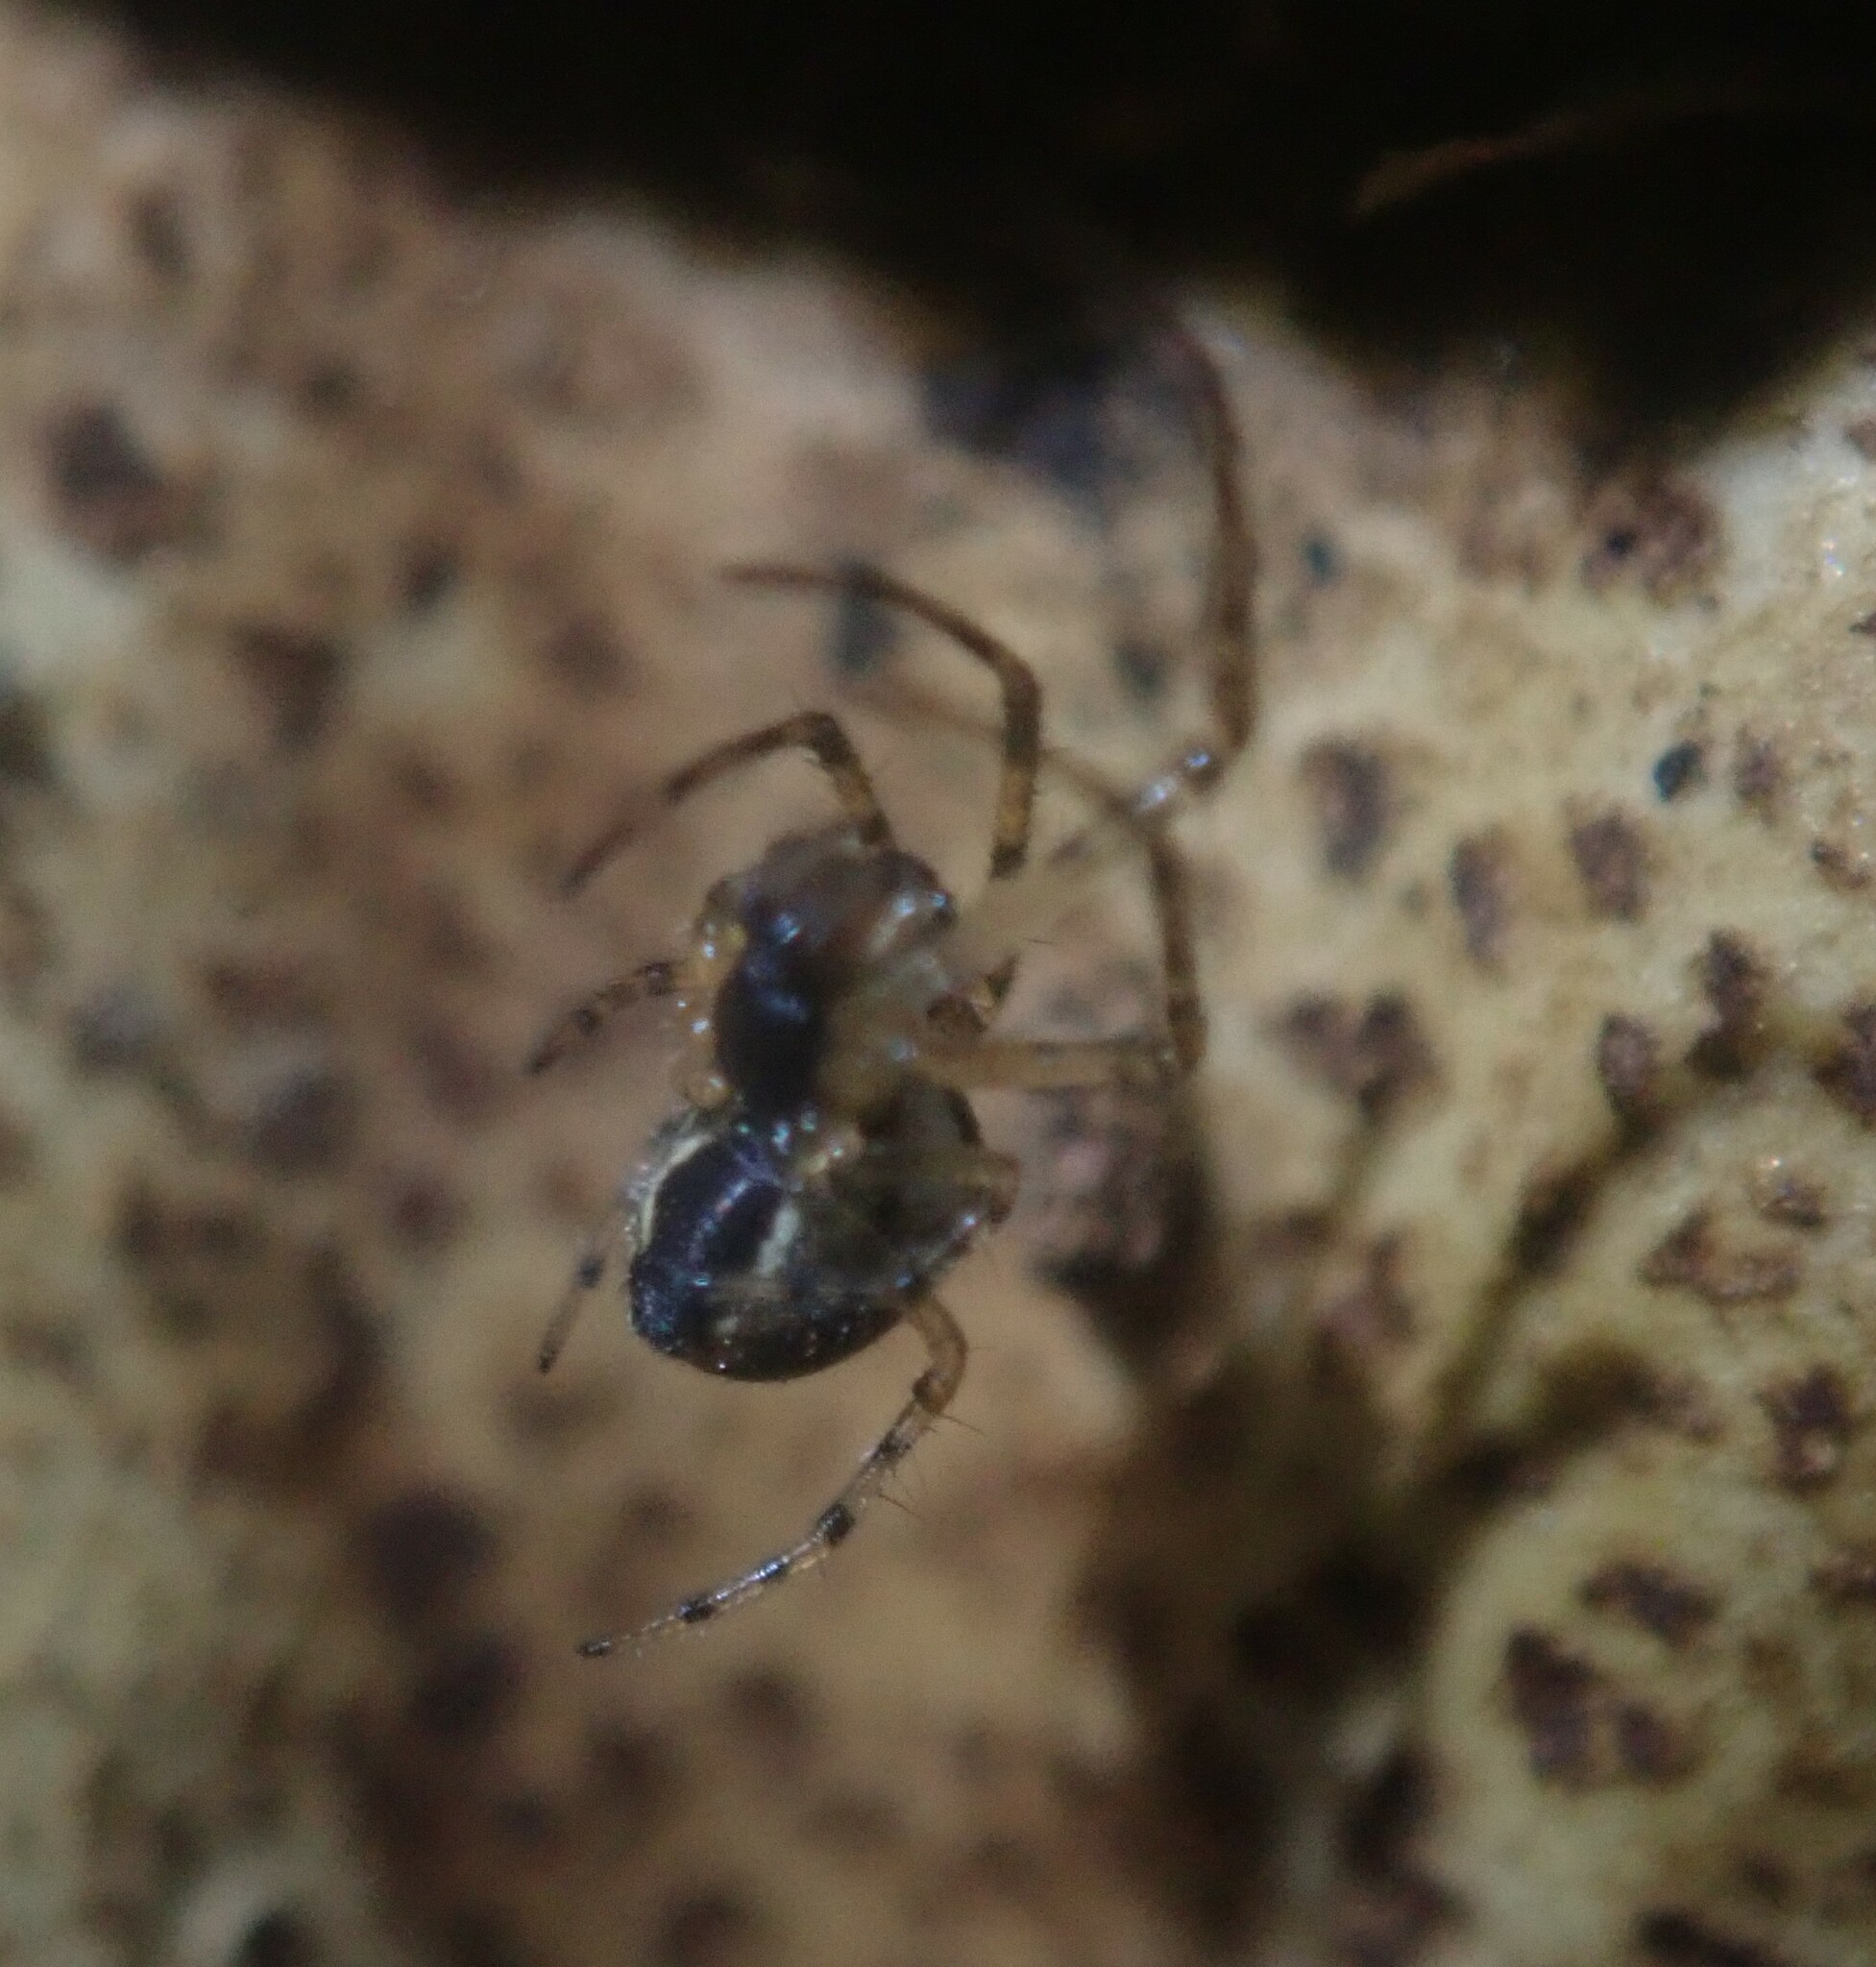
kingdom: Animalia
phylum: Arthropoda
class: Arachnida
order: Araneae
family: Araneidae
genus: Mangora
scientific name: Mangora acalypha
